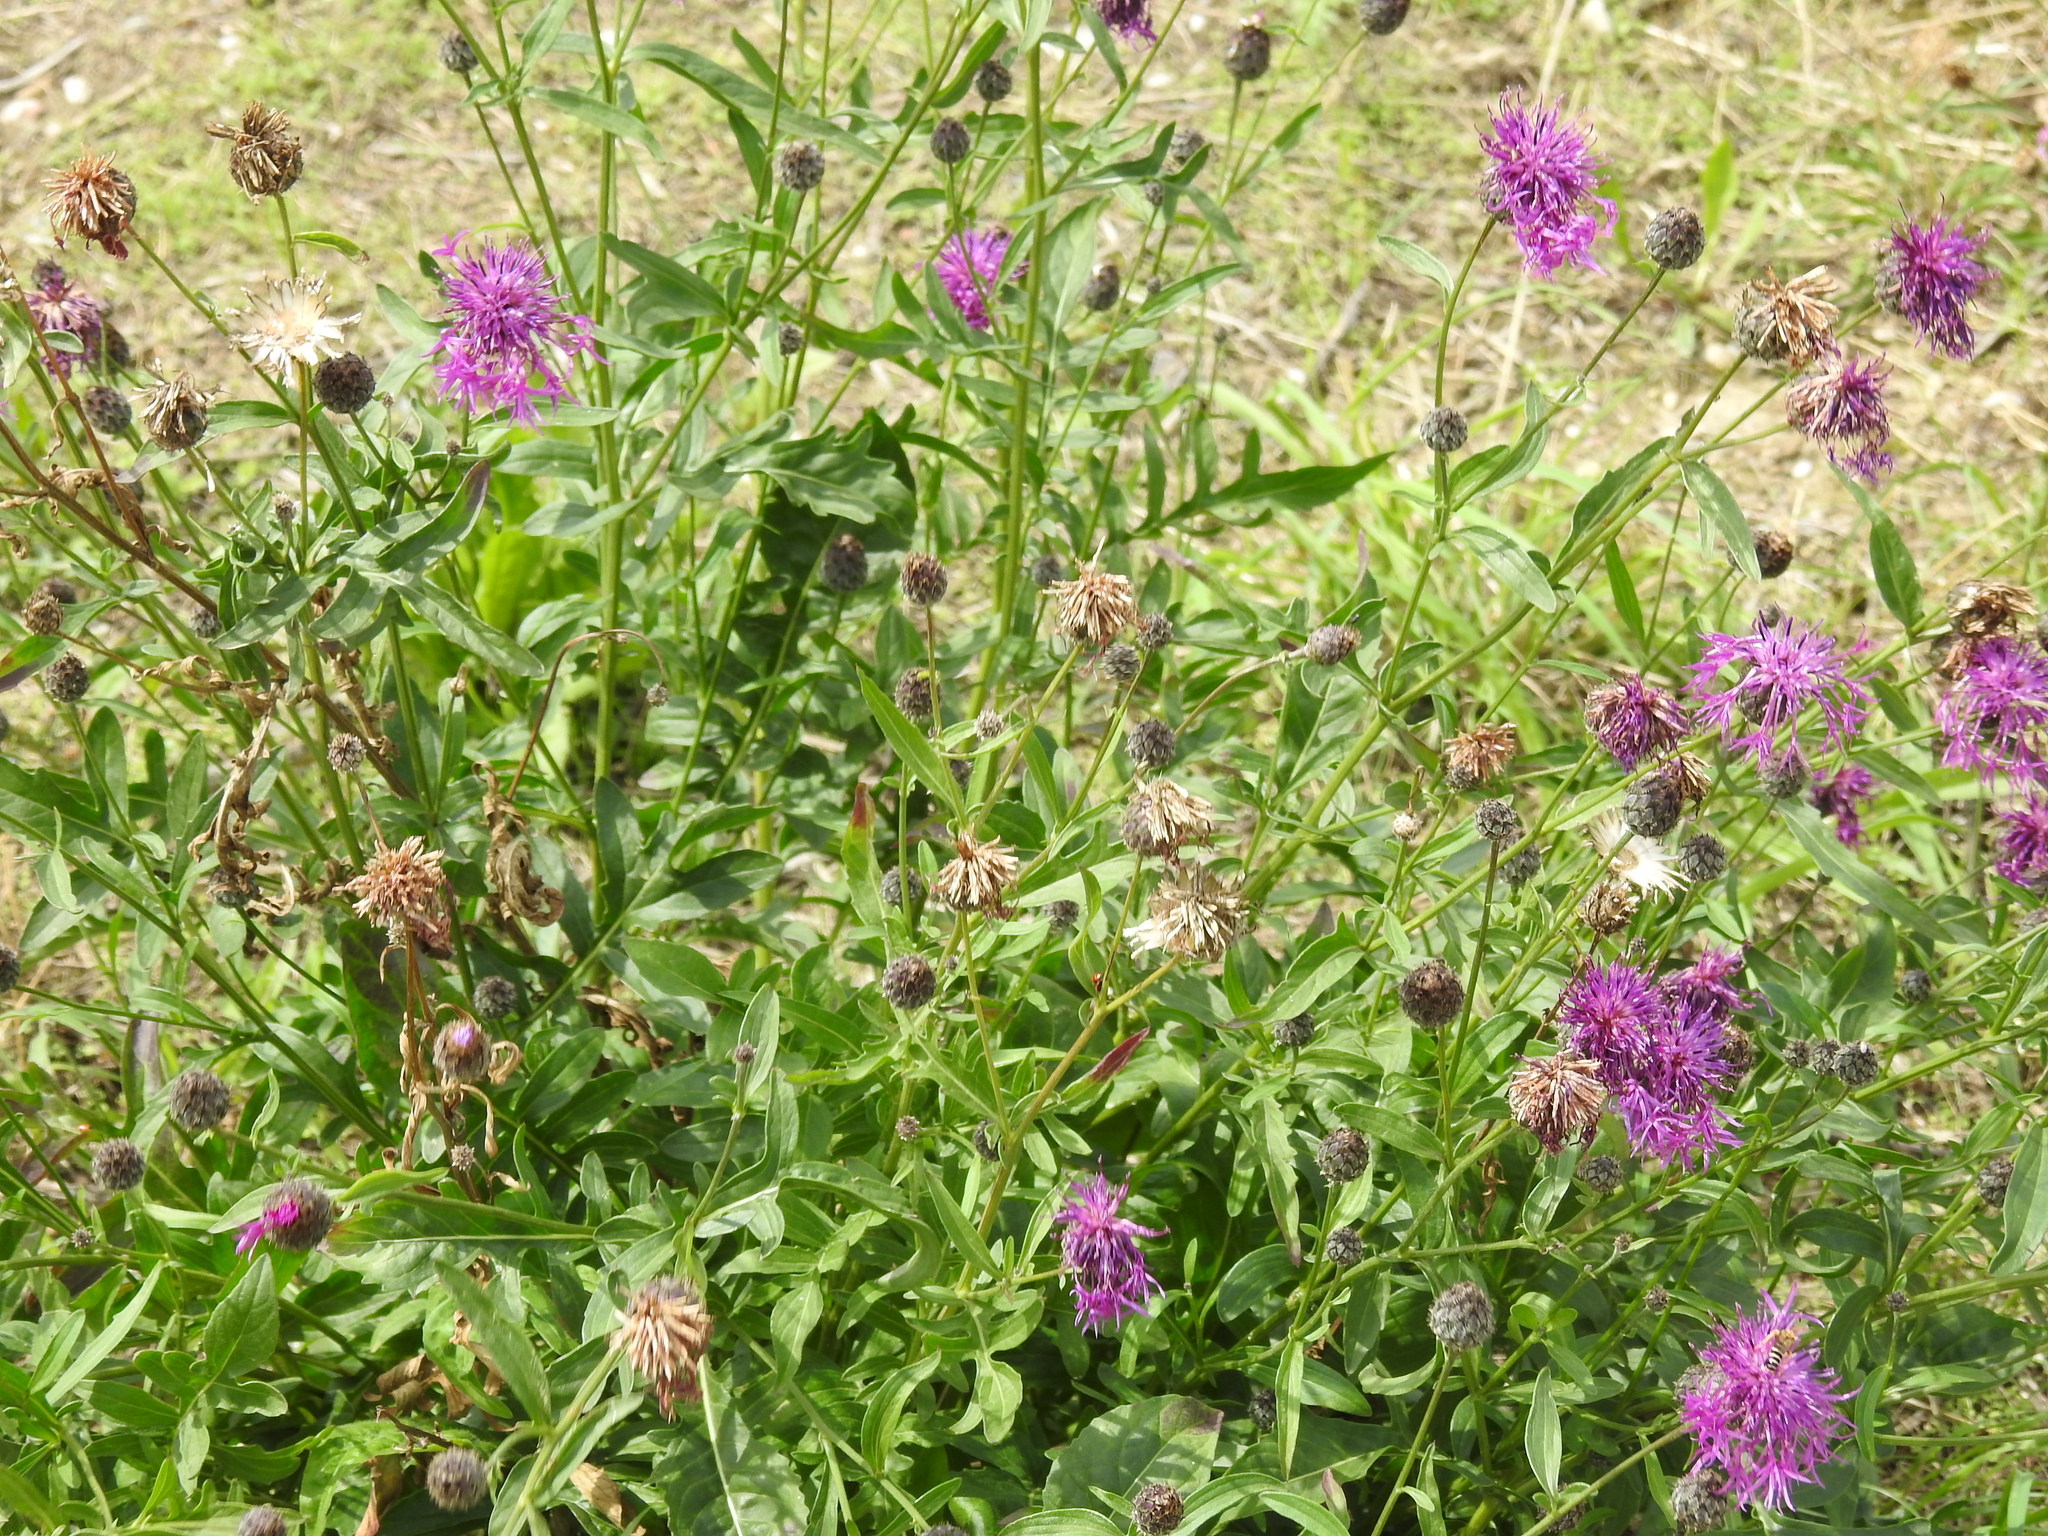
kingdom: Plantae
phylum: Tracheophyta
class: Magnoliopsida
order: Asterales
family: Asteraceae
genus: Centaurea
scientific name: Centaurea scabiosa
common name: Greater knapweed
